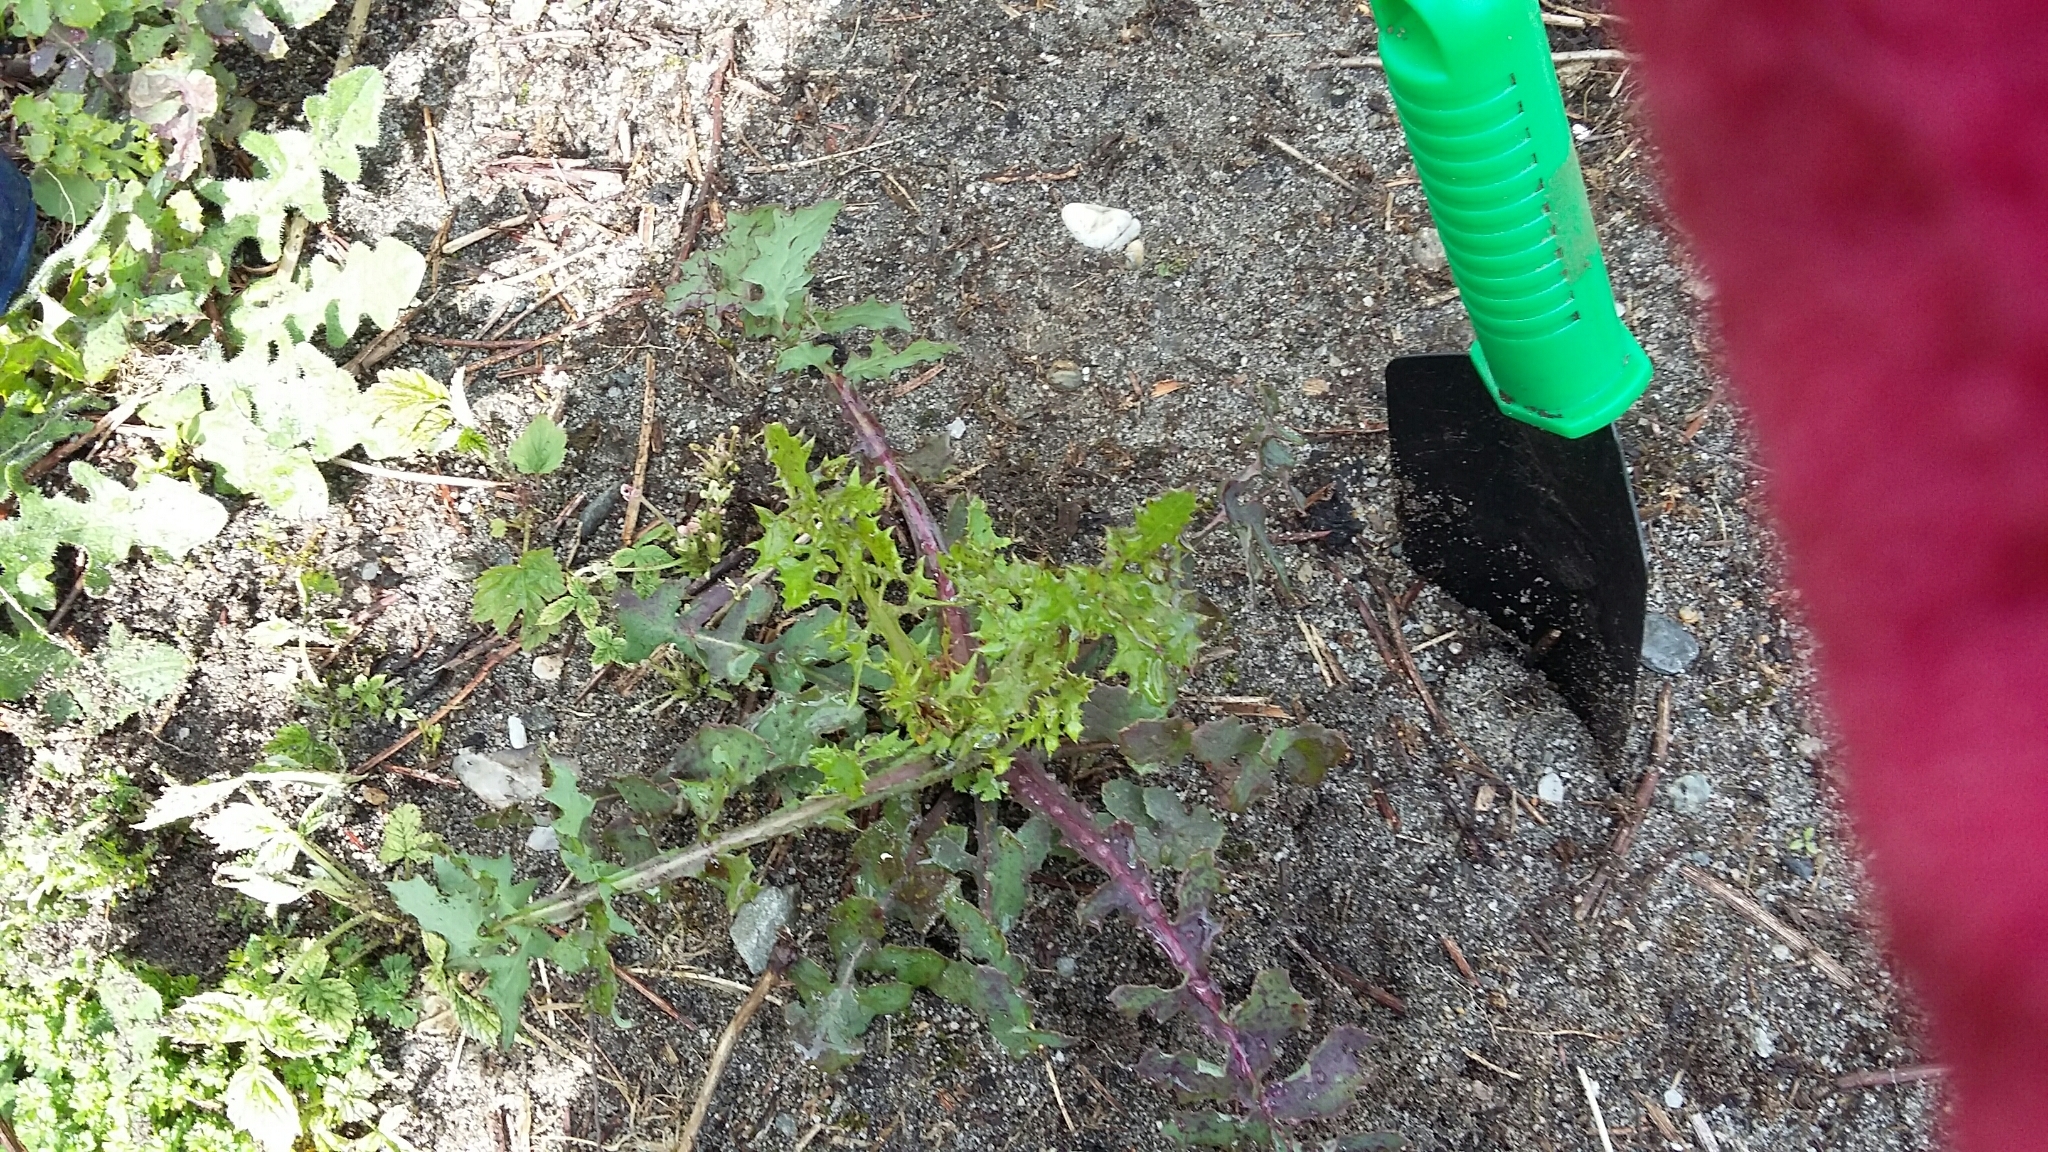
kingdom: Plantae
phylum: Tracheophyta
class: Magnoliopsida
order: Asterales
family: Asteraceae
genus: Sonchus
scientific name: Sonchus oleraceus
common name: Common sowthistle
